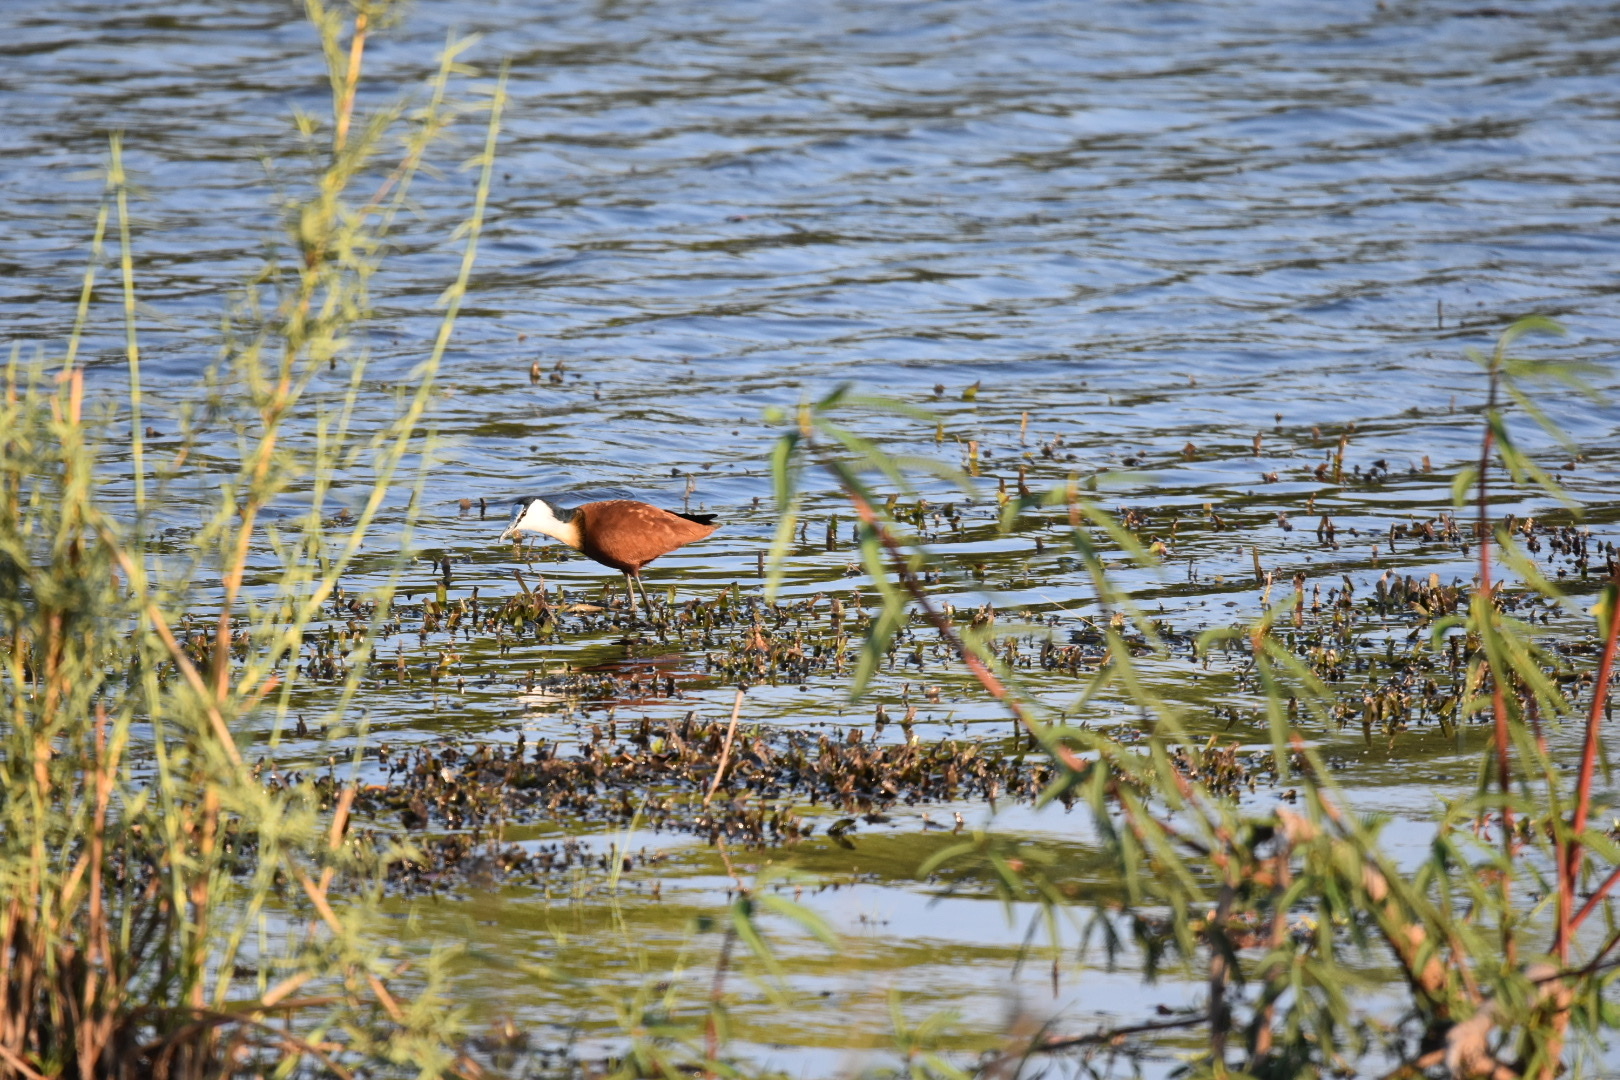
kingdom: Animalia
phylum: Chordata
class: Aves
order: Charadriiformes
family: Jacanidae
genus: Actophilornis
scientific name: Actophilornis africanus
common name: African jacana
